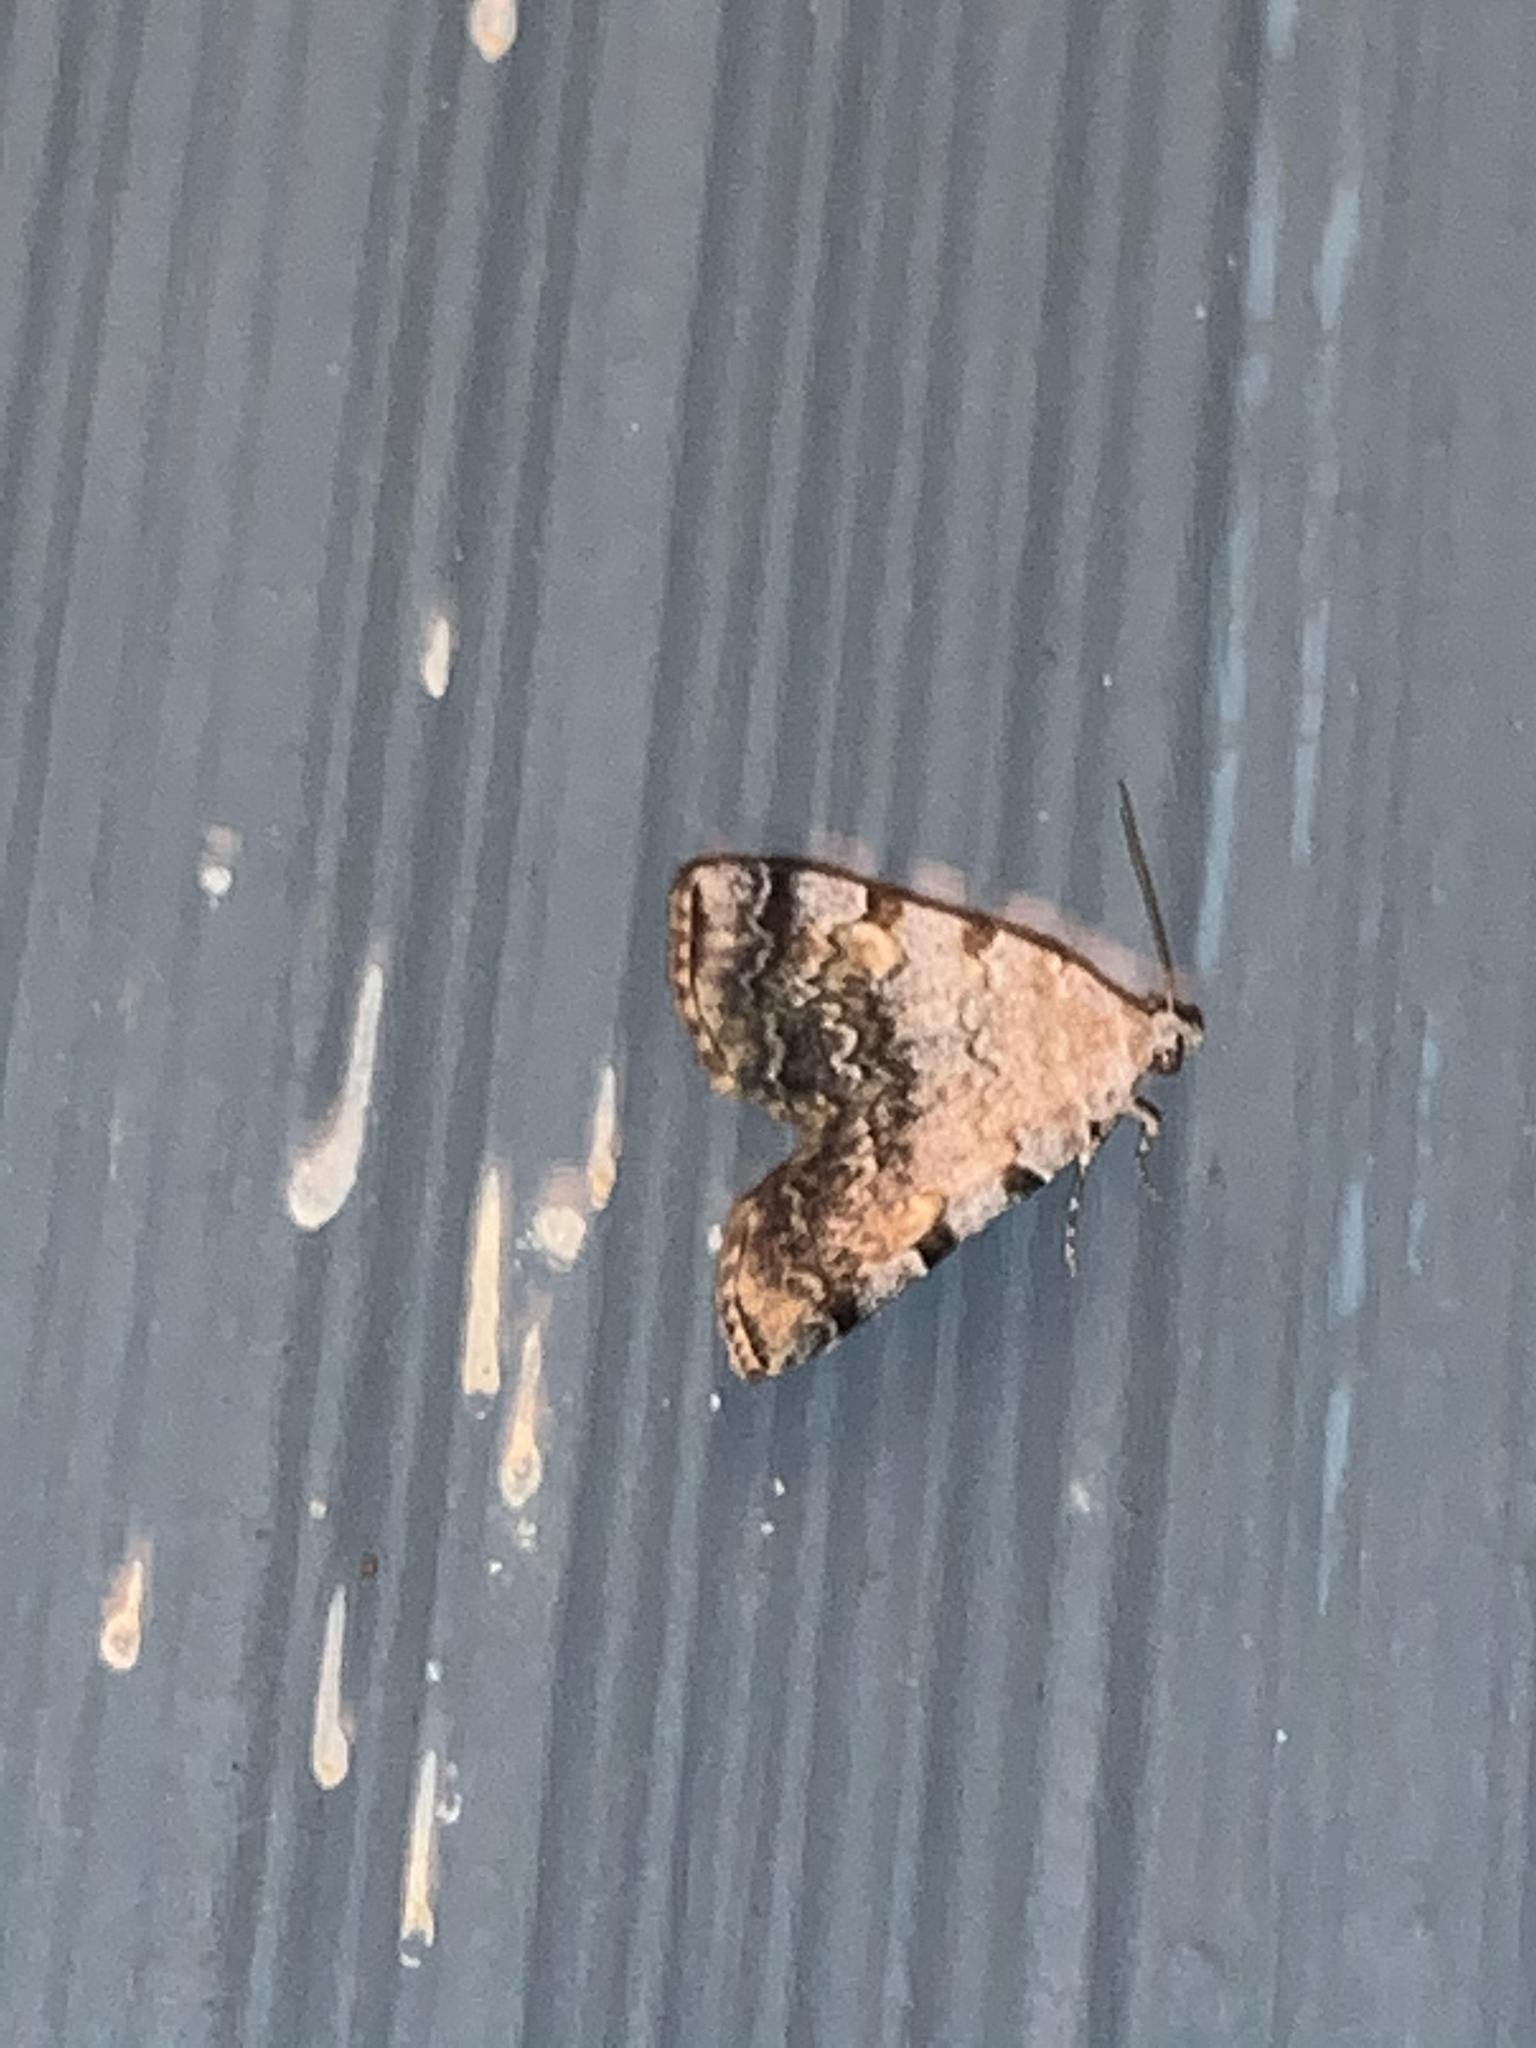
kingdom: Animalia
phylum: Arthropoda
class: Insecta
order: Lepidoptera
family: Erebidae
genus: Idia
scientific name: Idia americalis
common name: American idia moth
